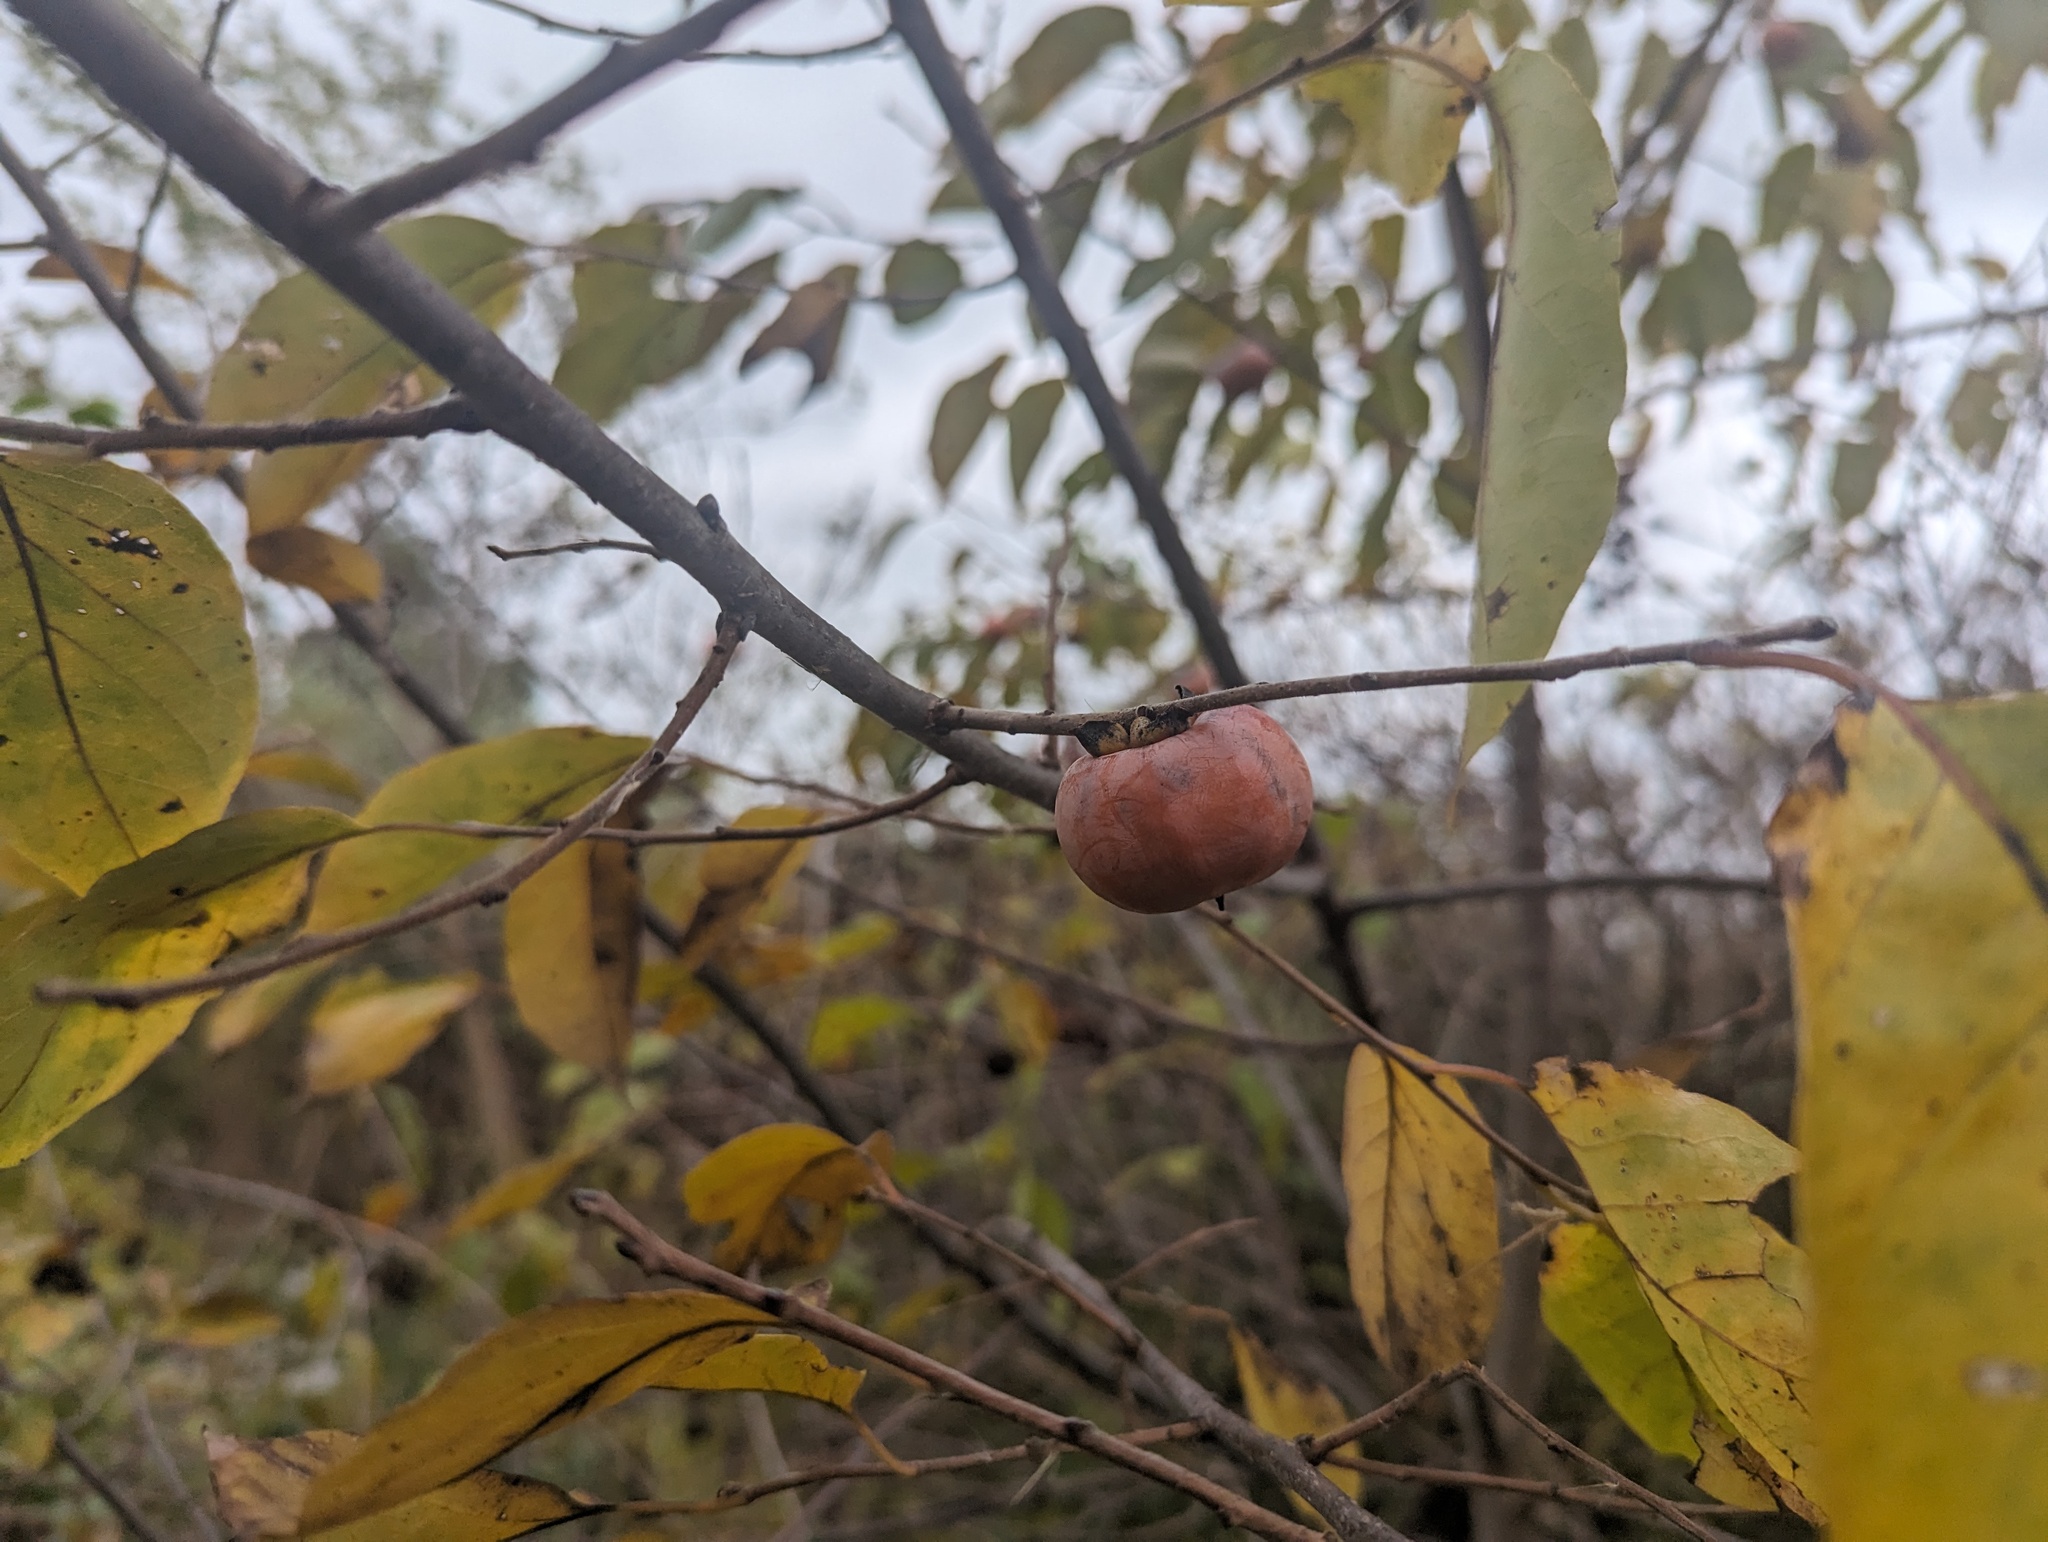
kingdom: Plantae
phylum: Tracheophyta
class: Magnoliopsida
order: Ericales
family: Ebenaceae
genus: Diospyros
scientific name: Diospyros virginiana
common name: Persimmon
